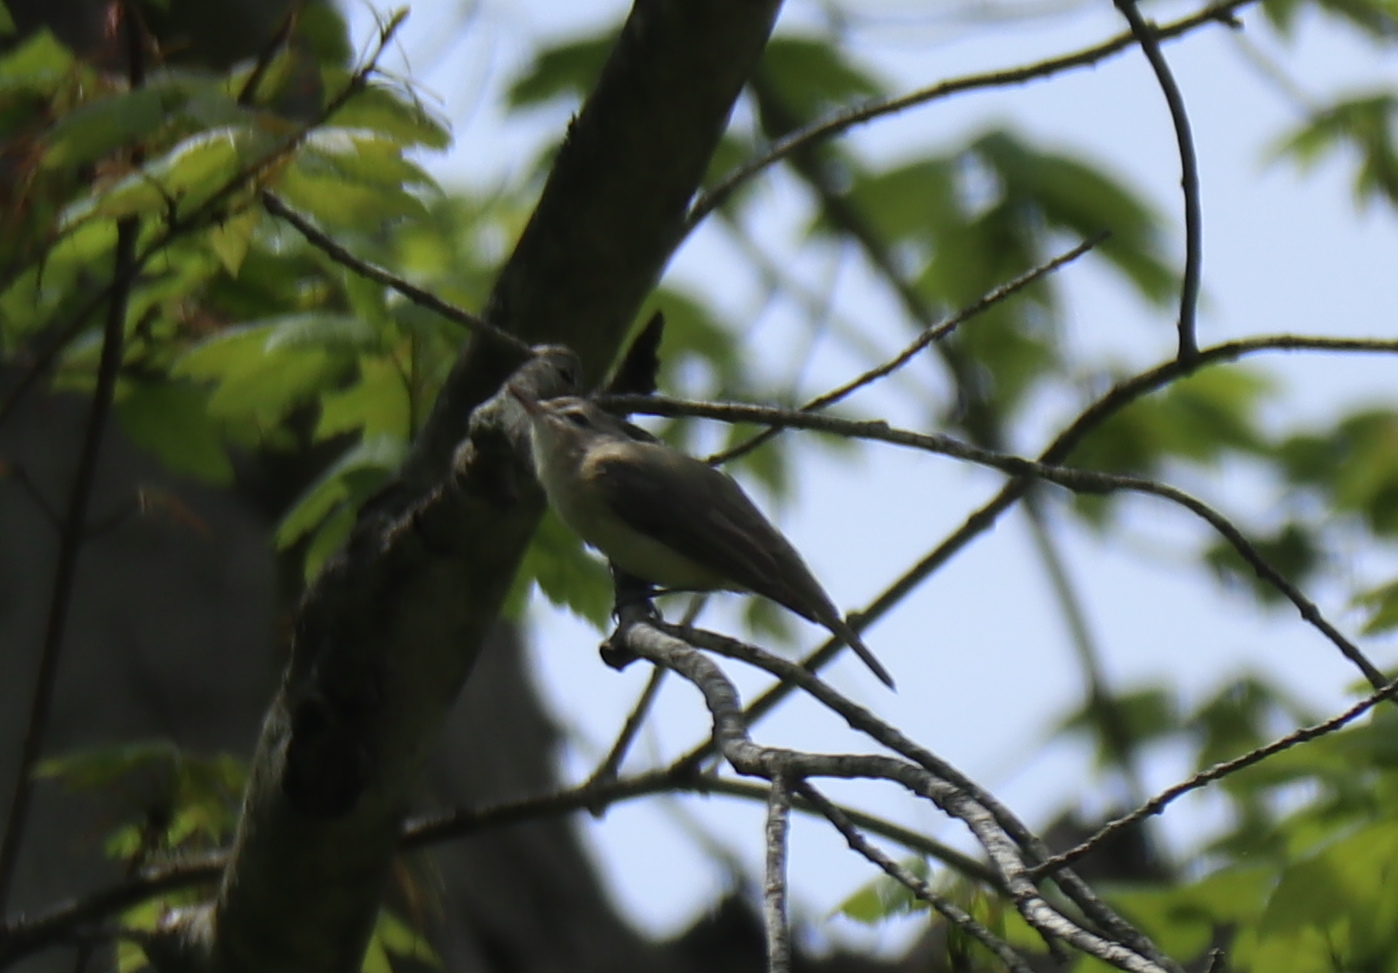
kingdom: Animalia
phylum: Chordata
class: Aves
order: Passeriformes
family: Vireonidae
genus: Vireo
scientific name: Vireo gilvus
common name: Warbling vireo
